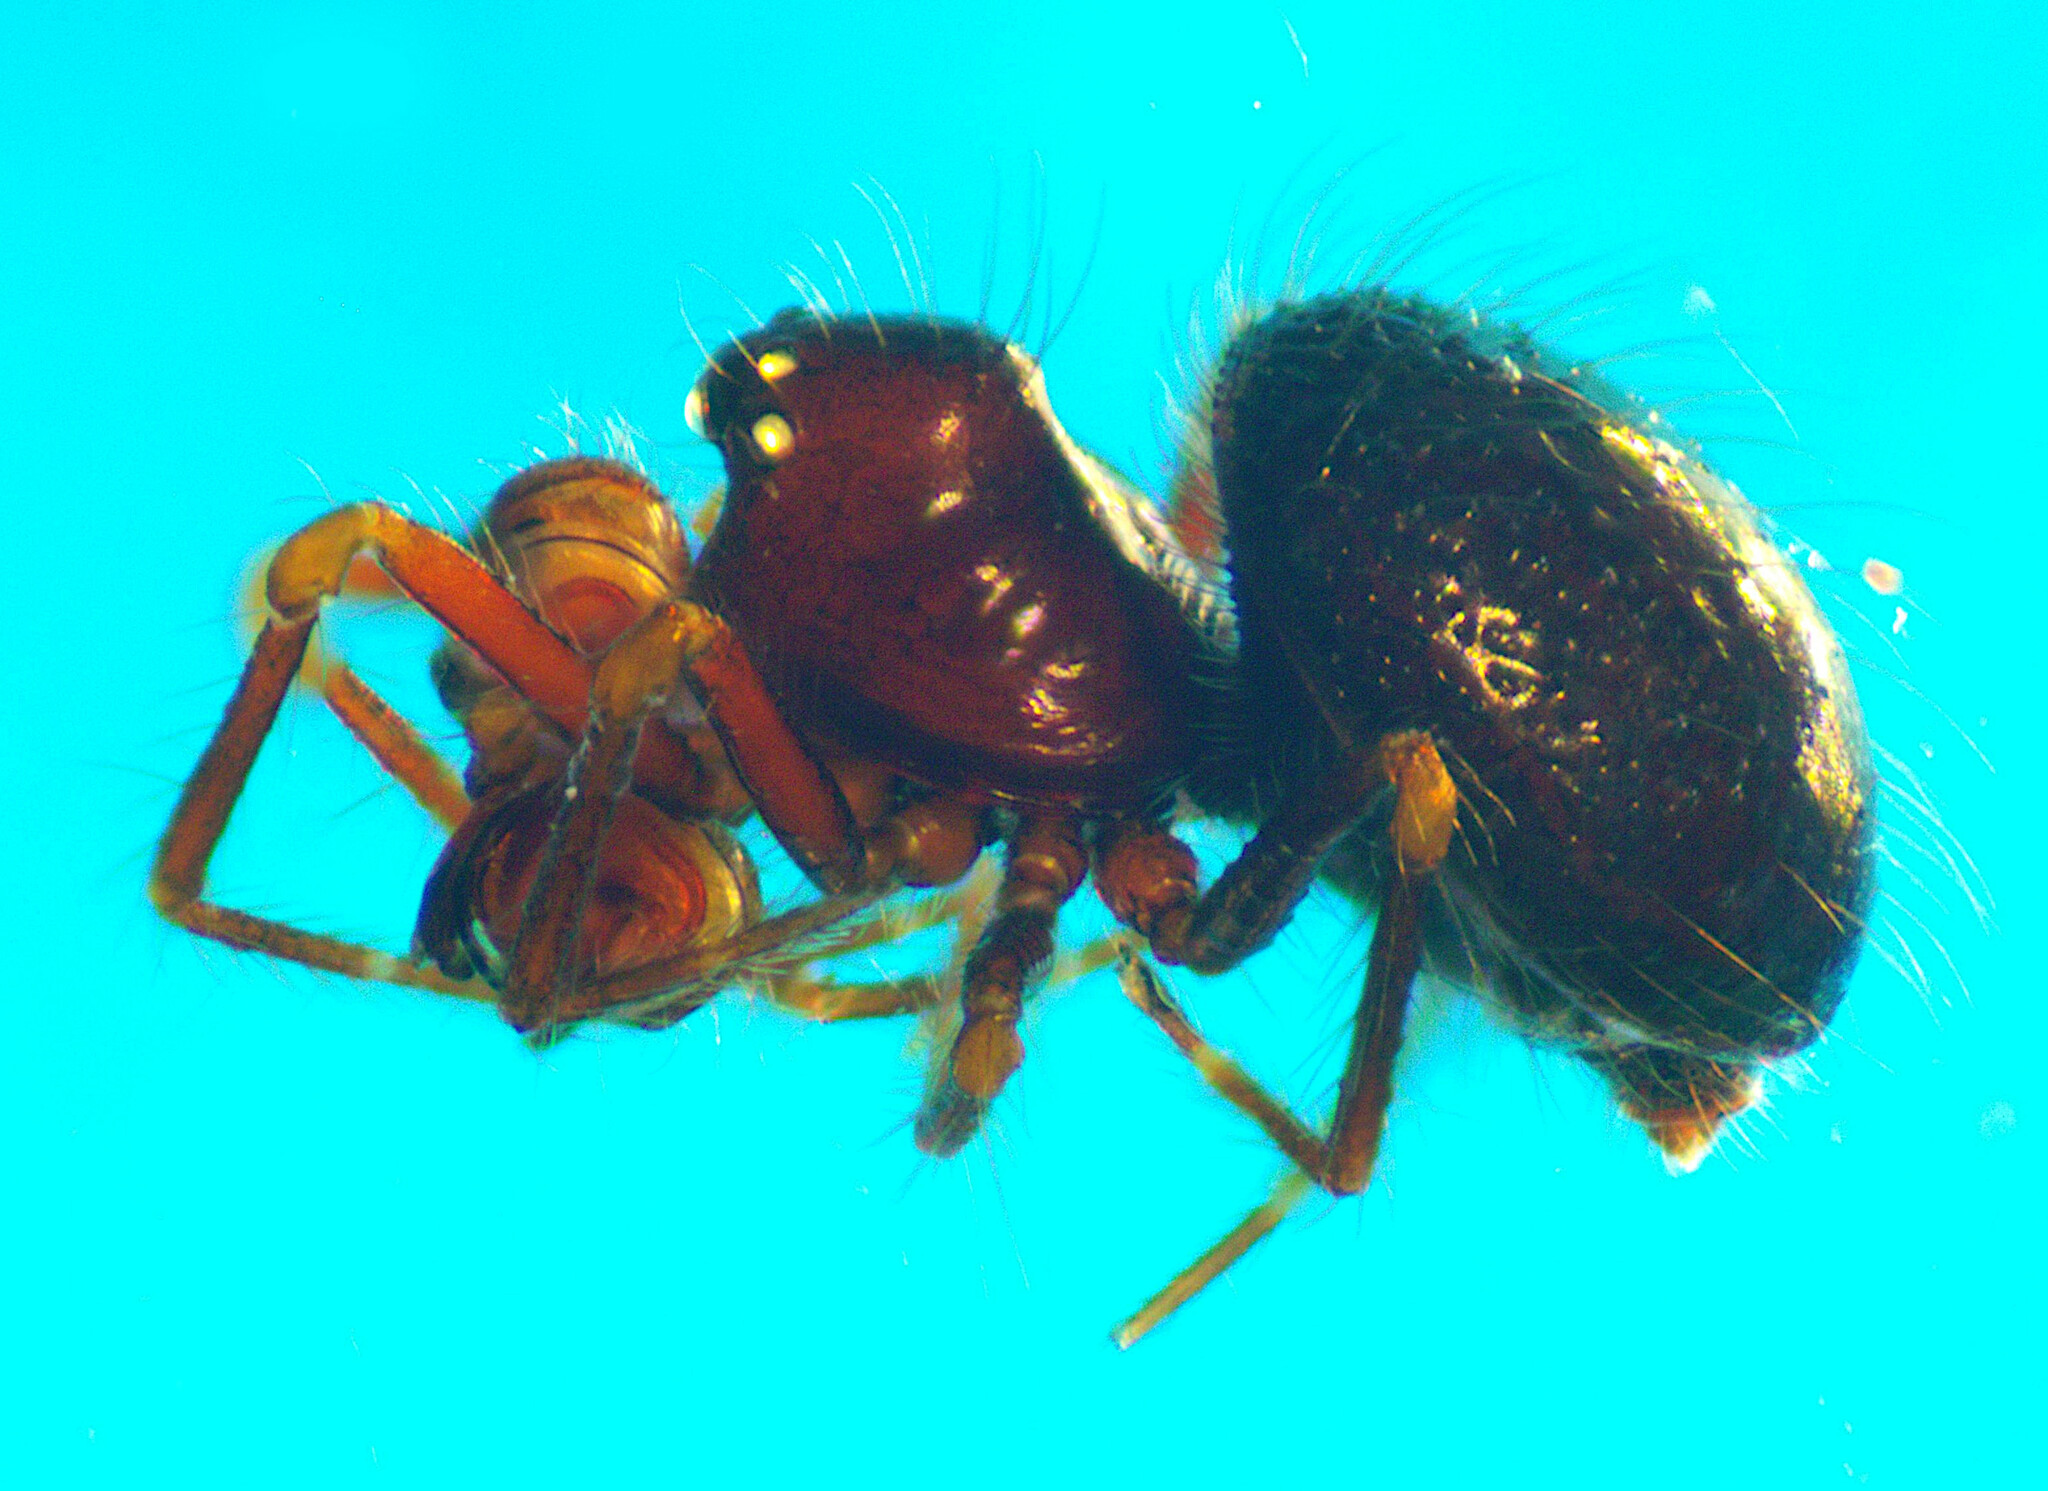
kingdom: Animalia
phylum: Arthropoda
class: Arachnida
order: Araneae
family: Cyatholipidae
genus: Matilda
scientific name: Matilda
